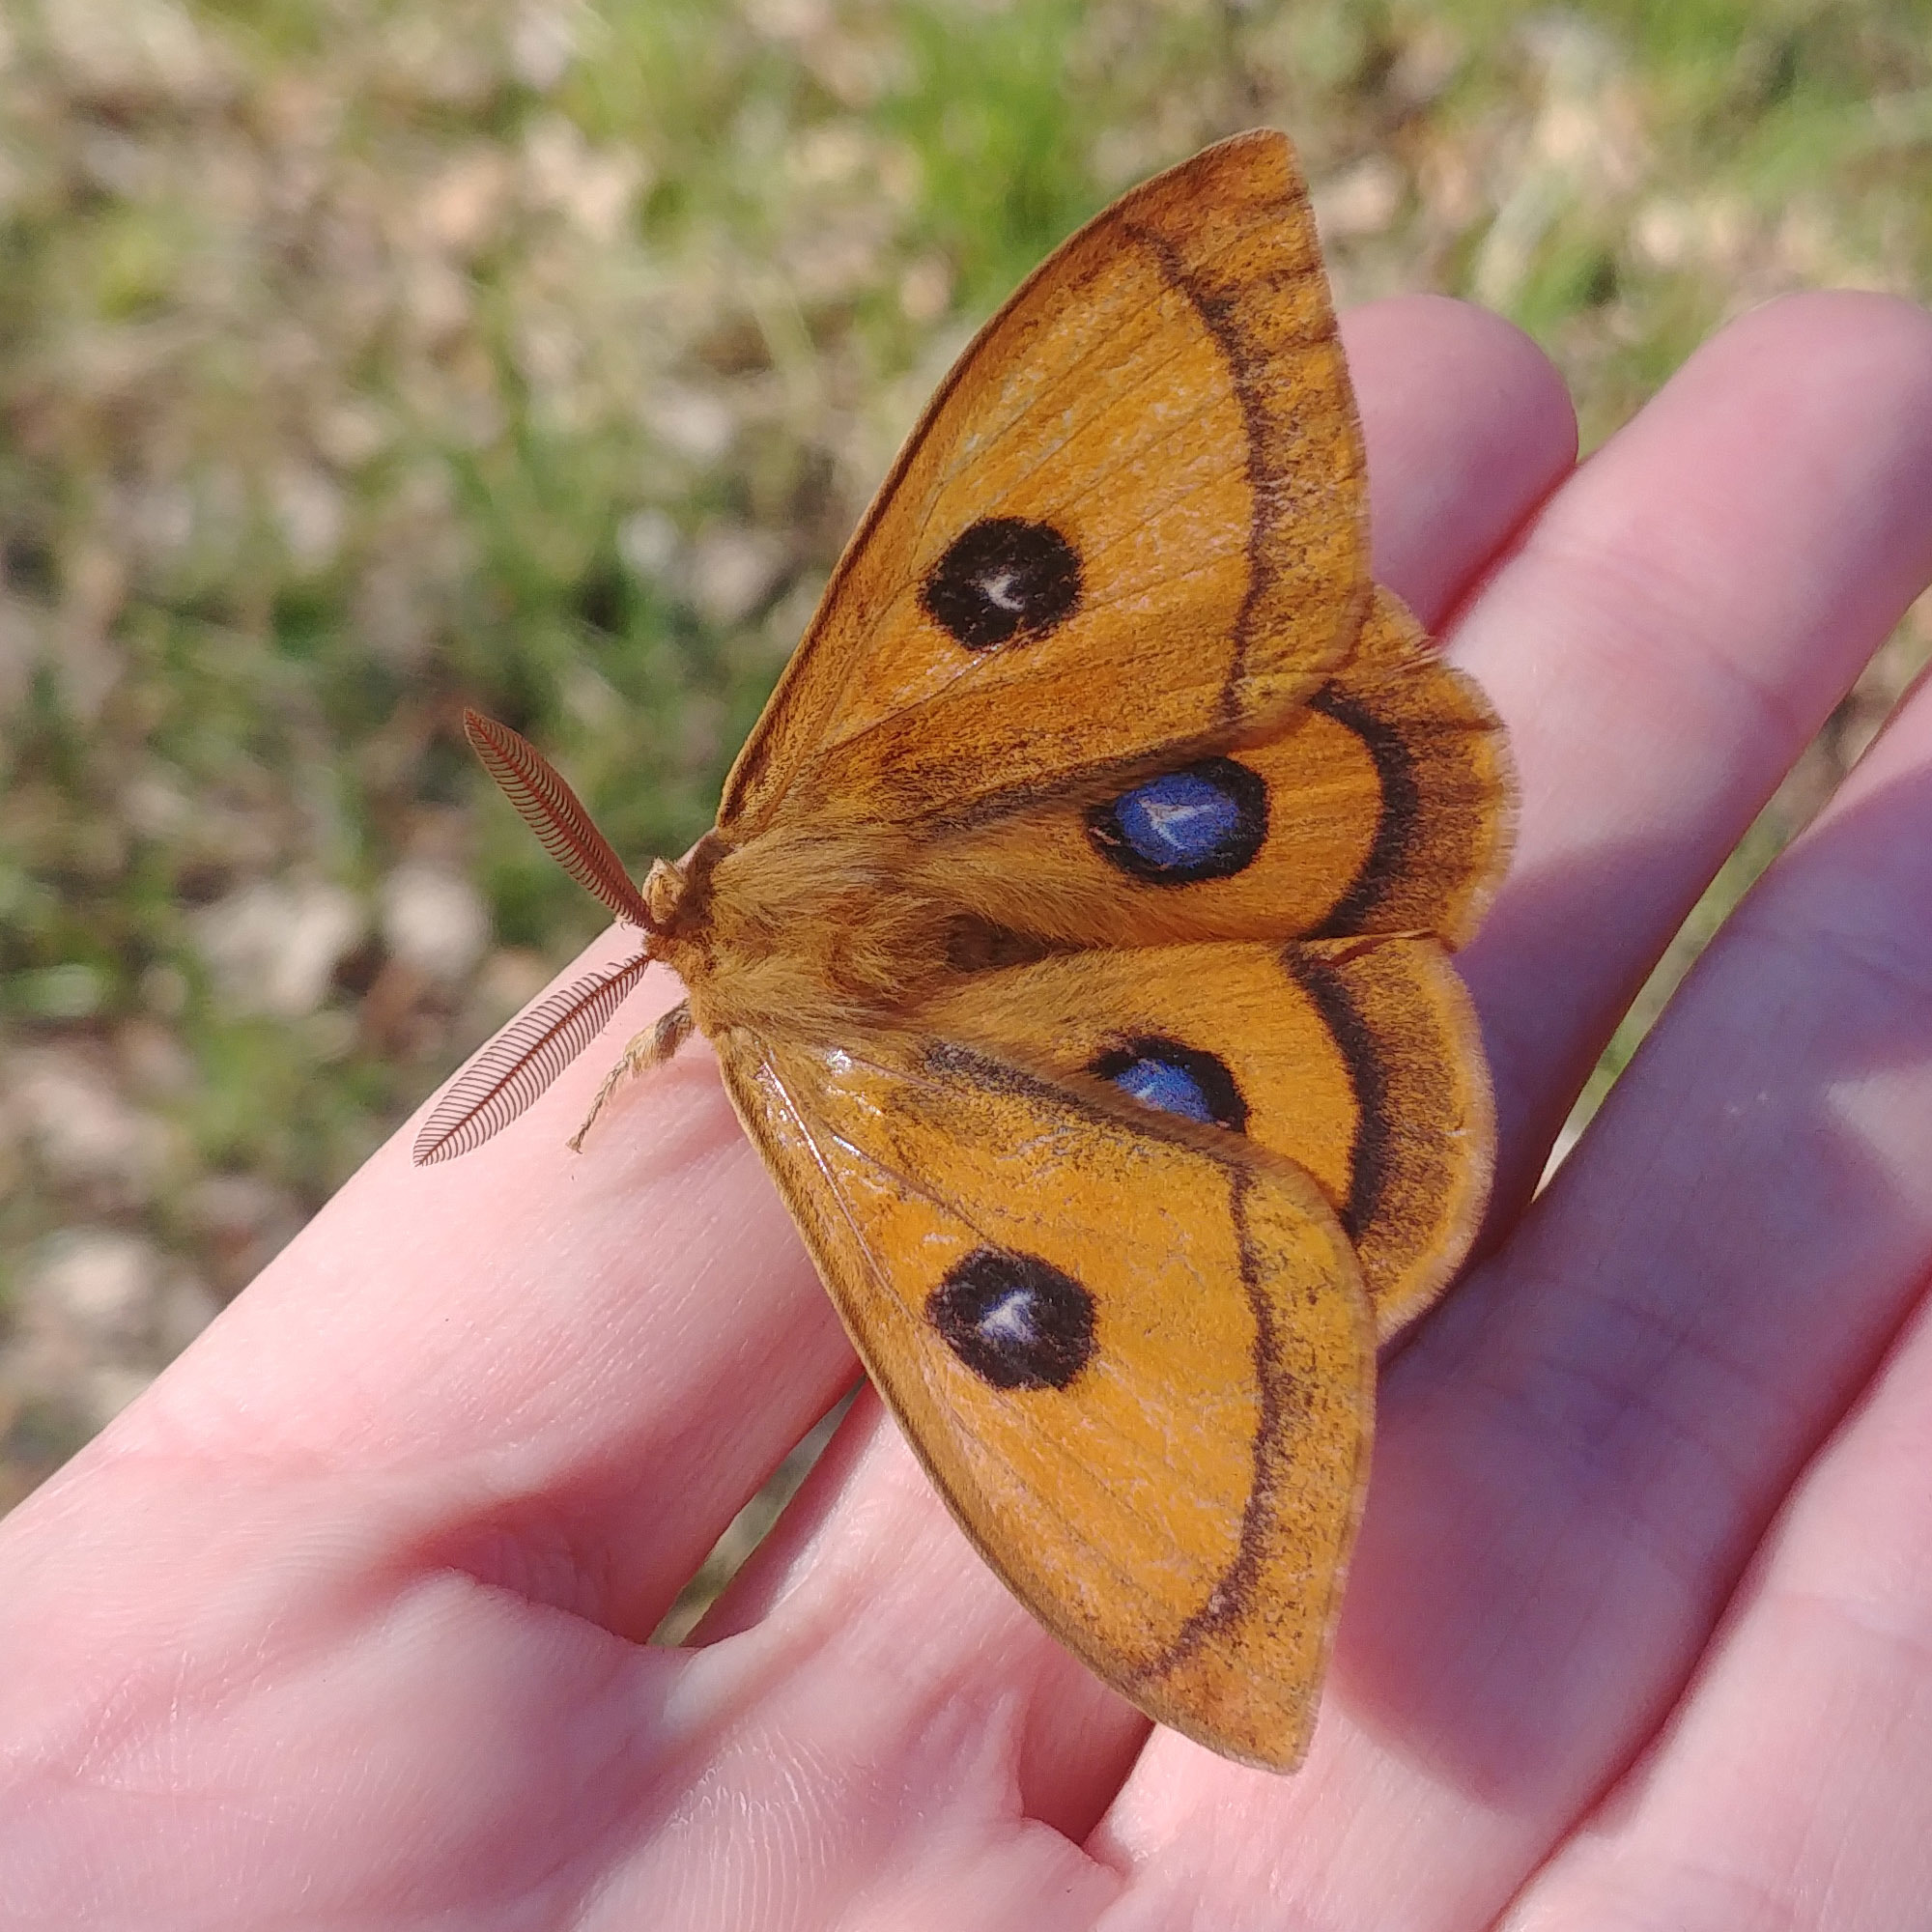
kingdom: Animalia
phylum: Arthropoda
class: Insecta
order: Lepidoptera
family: Saturniidae
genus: Aglia
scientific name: Aglia tau
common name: Tau emperor
